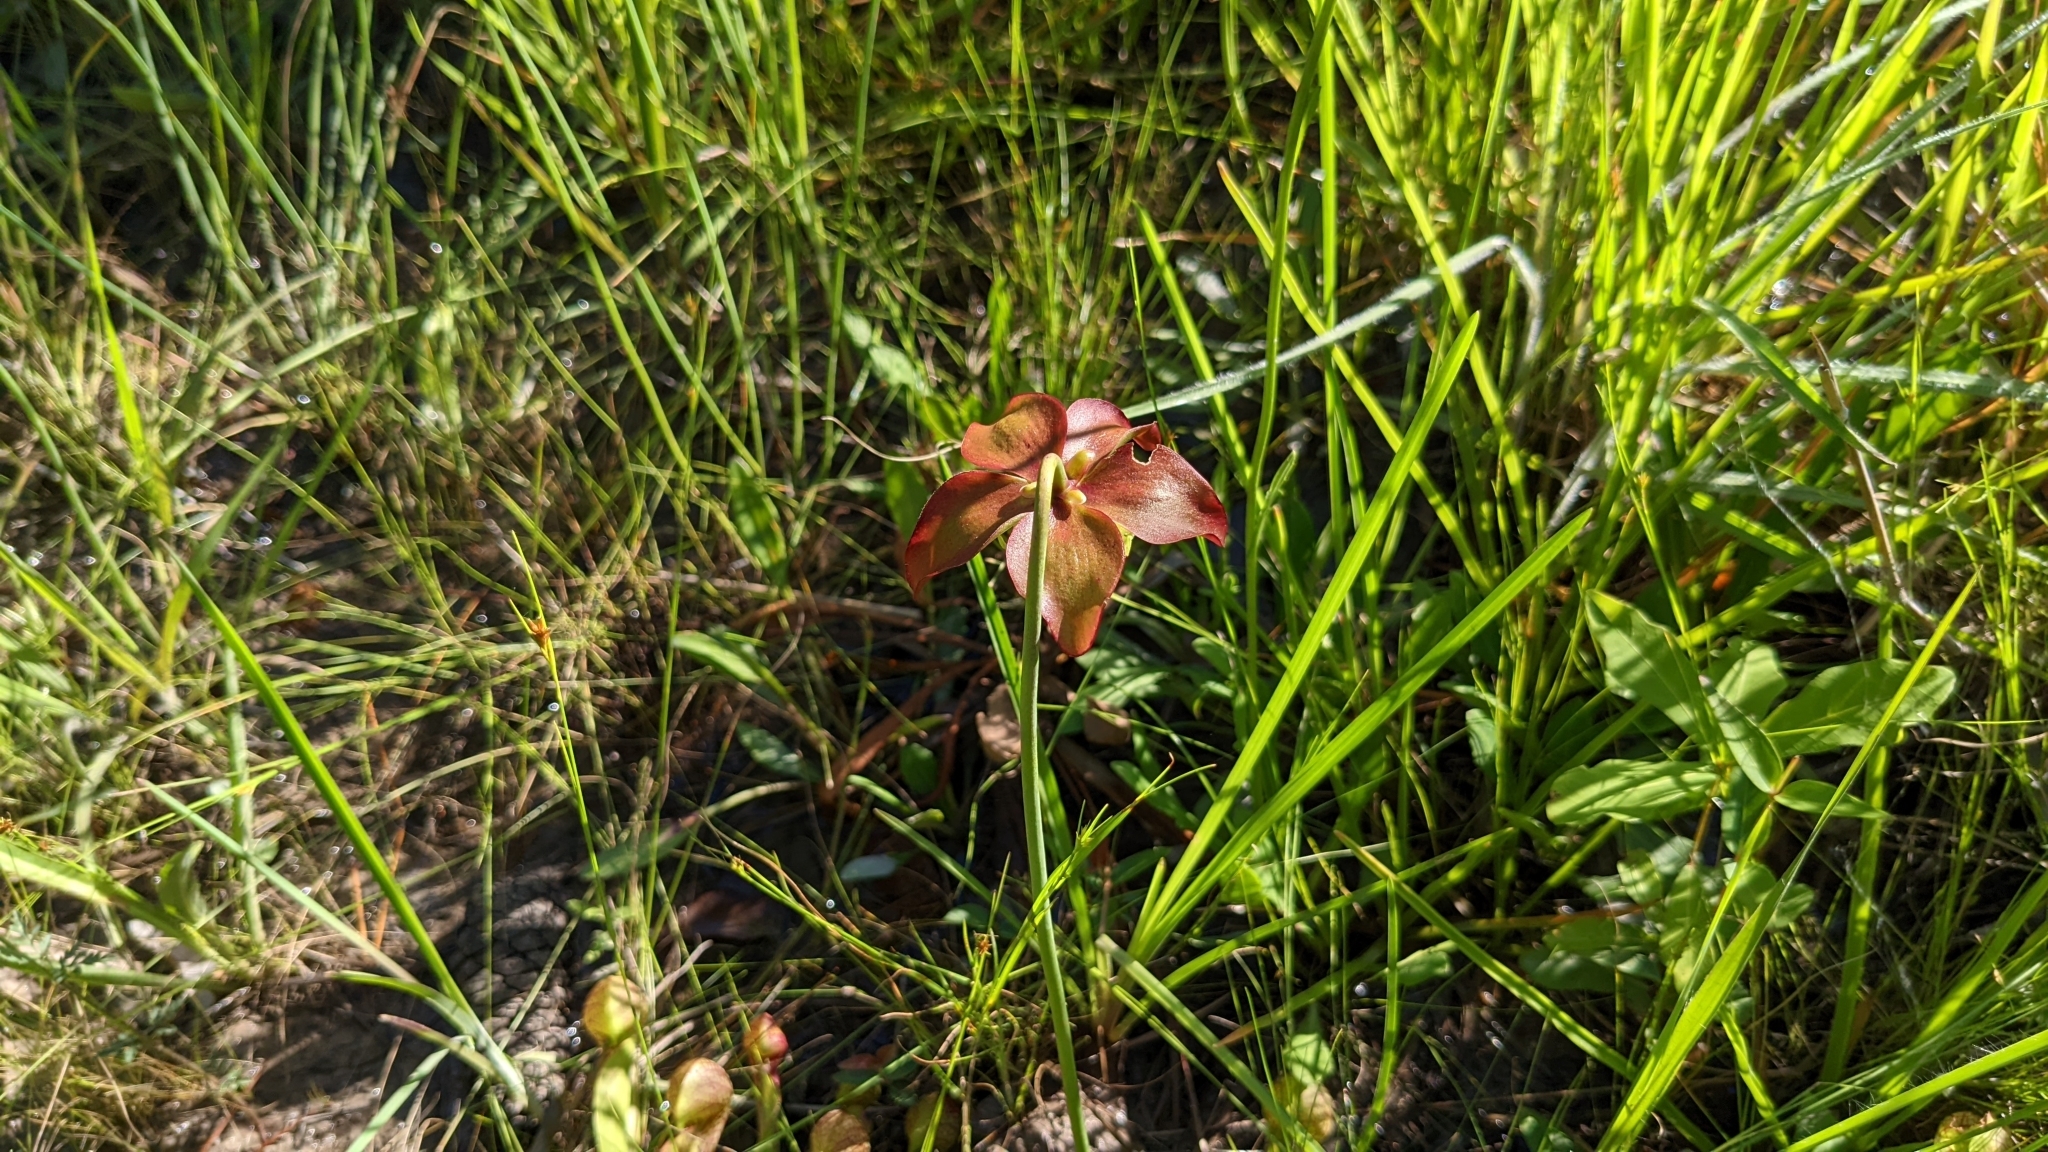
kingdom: Plantae
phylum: Tracheophyta
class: Magnoliopsida
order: Ericales
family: Sarraceniaceae
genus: Sarracenia
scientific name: Sarracenia psittacina
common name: Parrot pitcherplant
